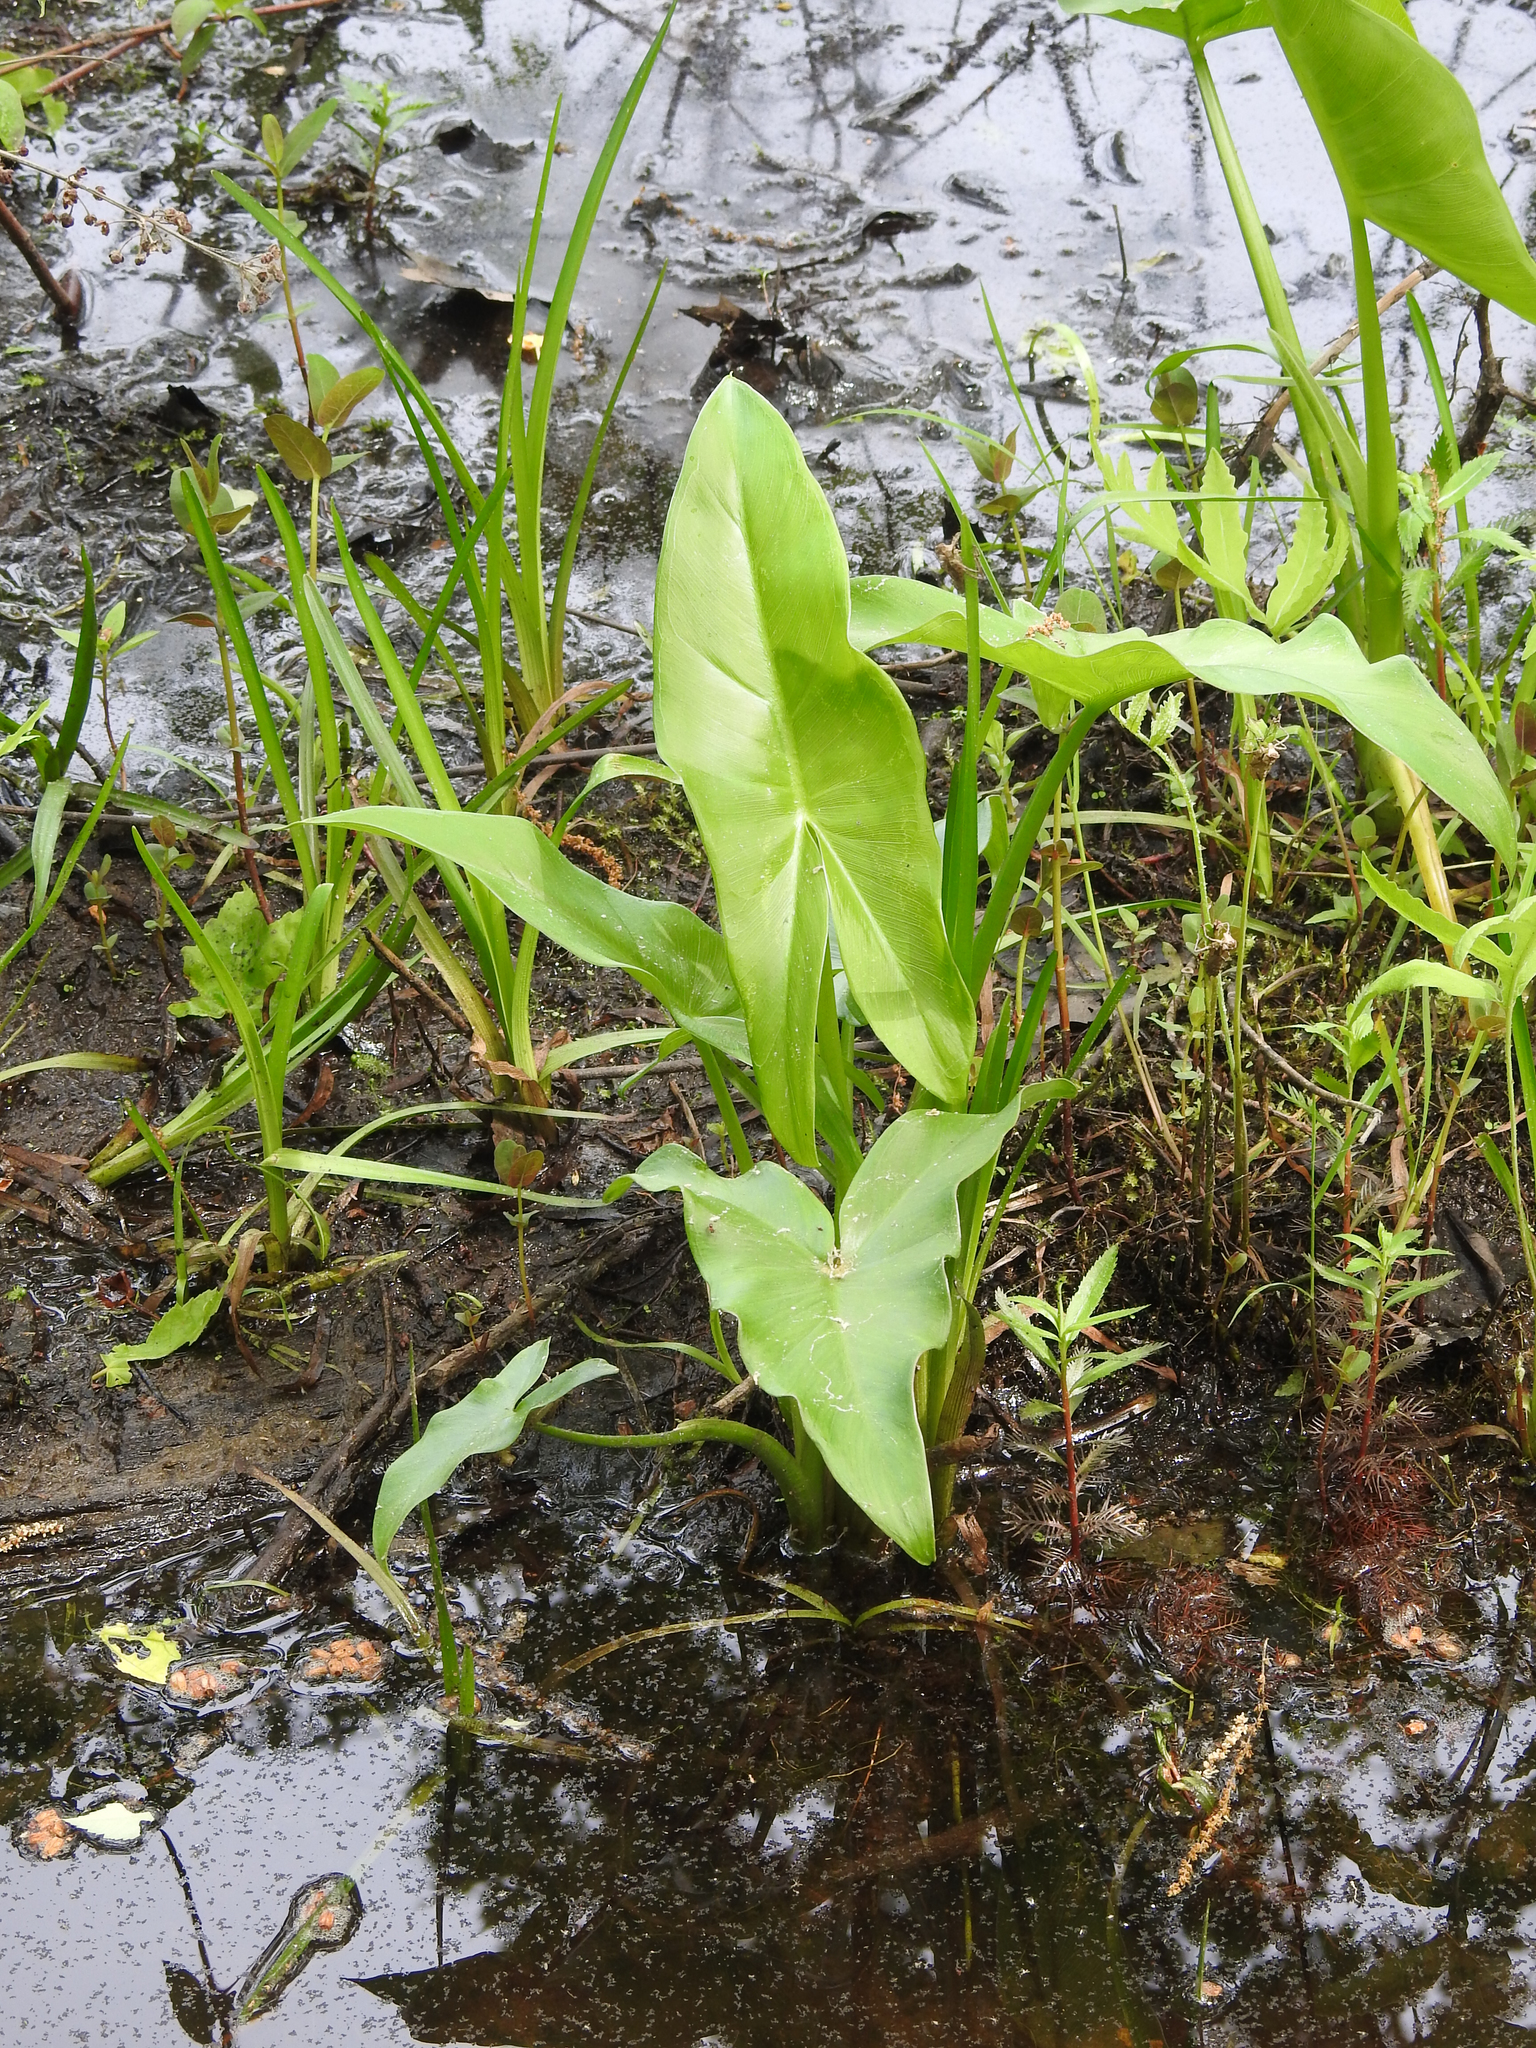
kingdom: Plantae
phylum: Tracheophyta
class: Liliopsida
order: Alismatales
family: Araceae
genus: Peltandra
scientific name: Peltandra virginica
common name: Arrow arum
